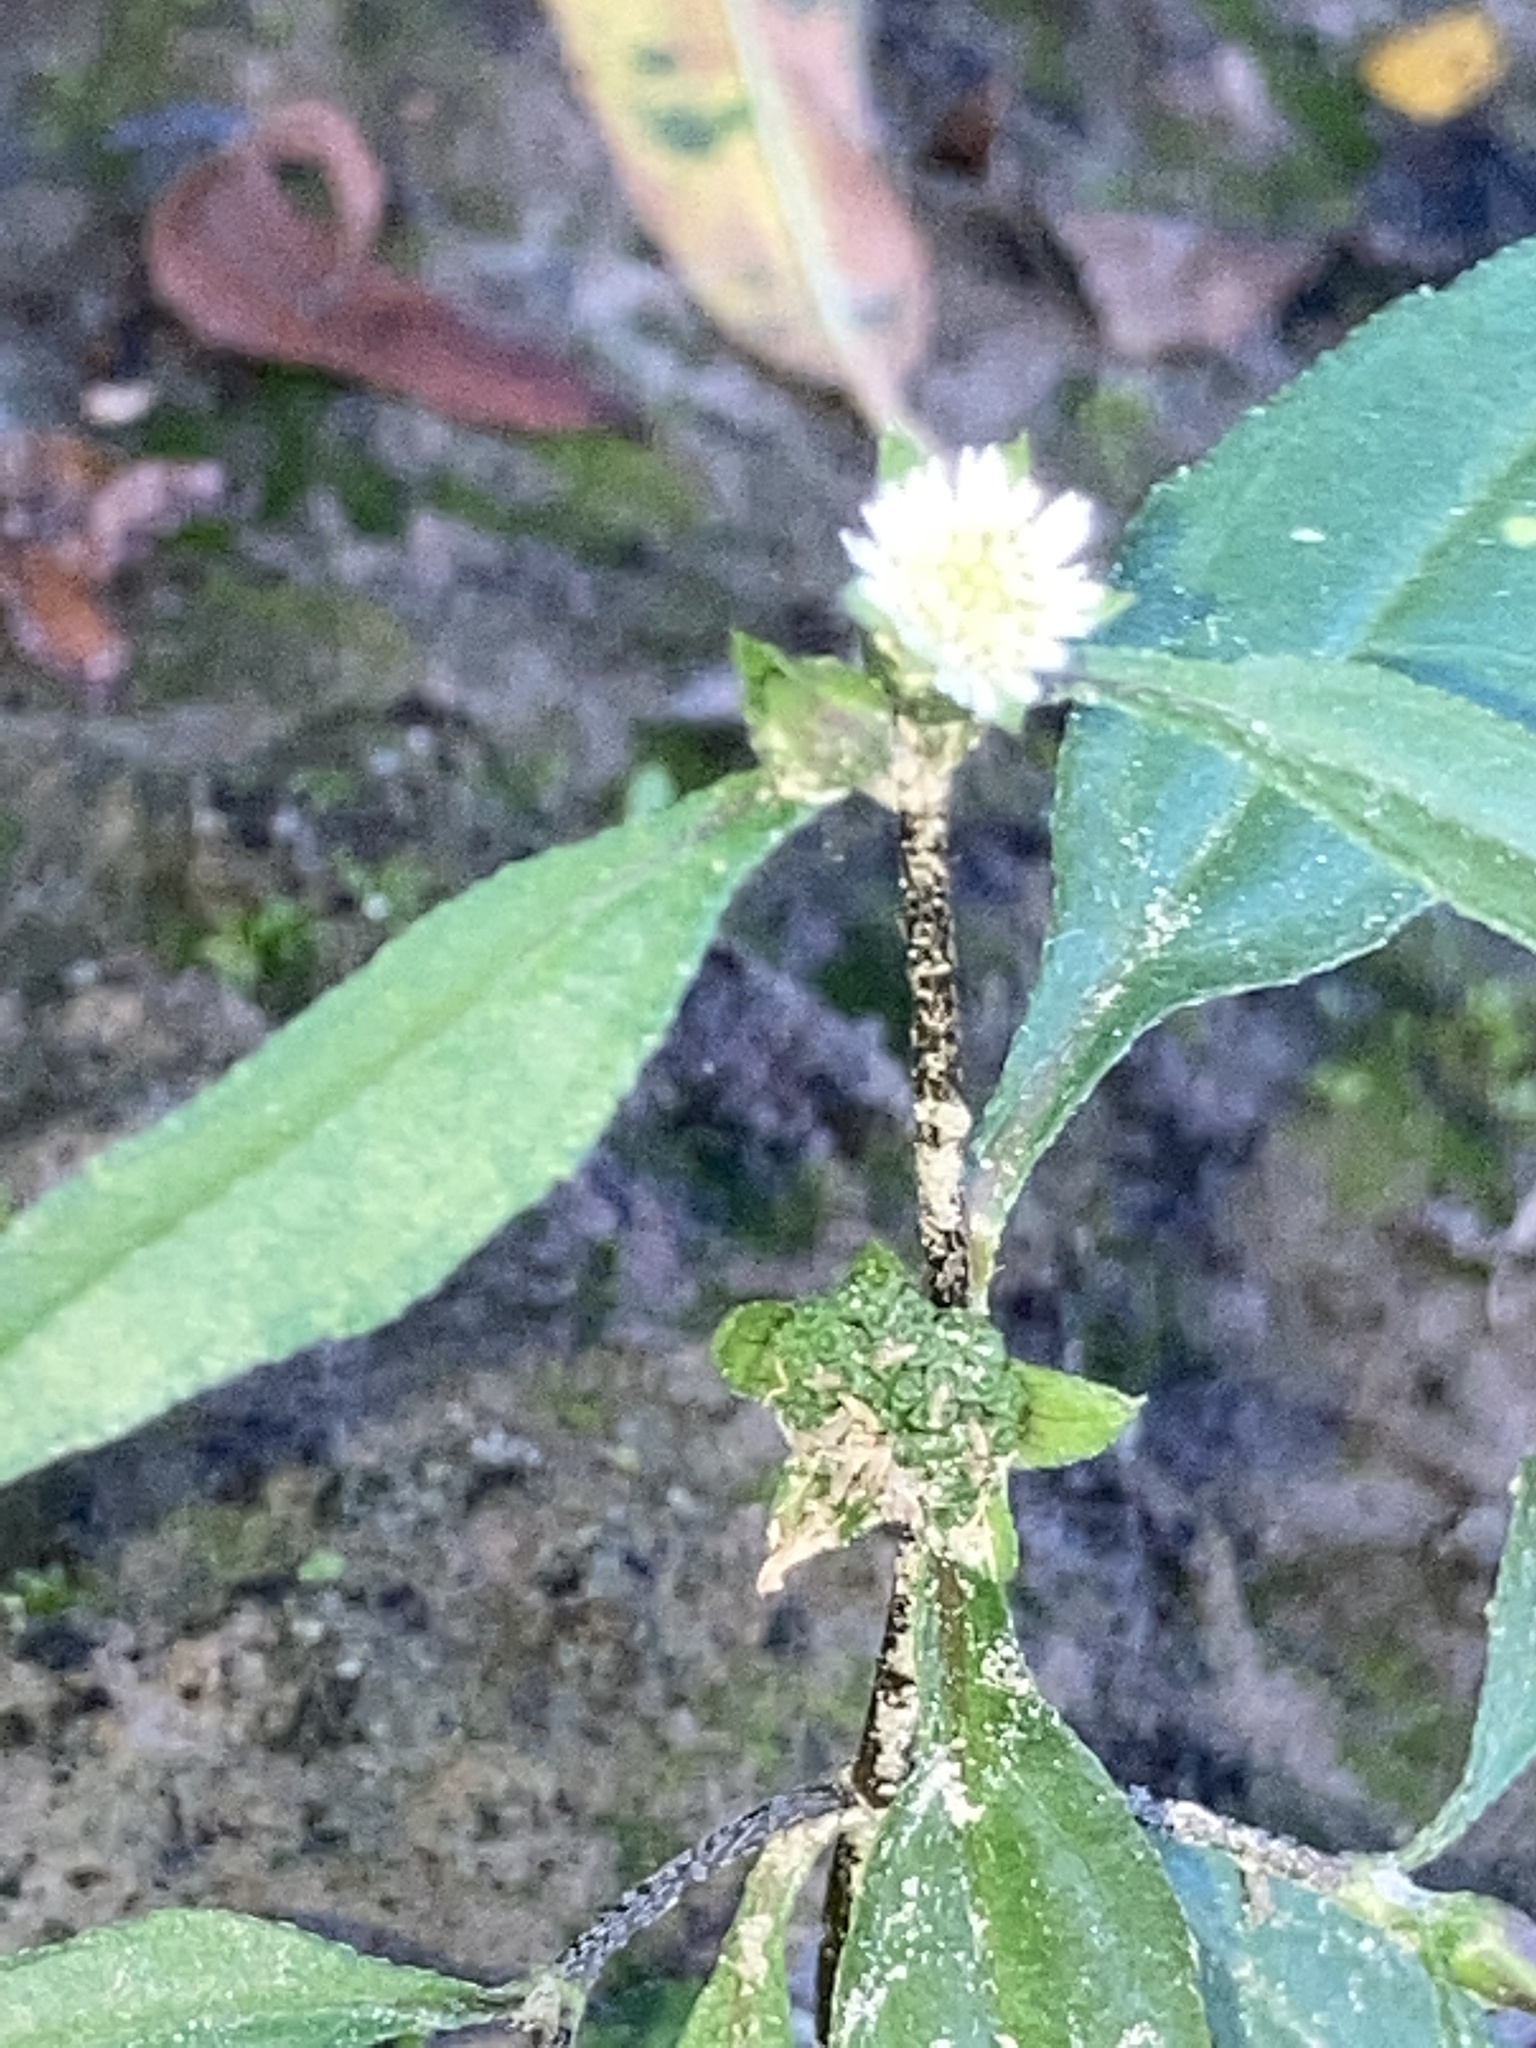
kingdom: Plantae
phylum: Tracheophyta
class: Magnoliopsida
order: Asterales
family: Asteraceae
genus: Eclipta
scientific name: Eclipta prostrata
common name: False daisy
